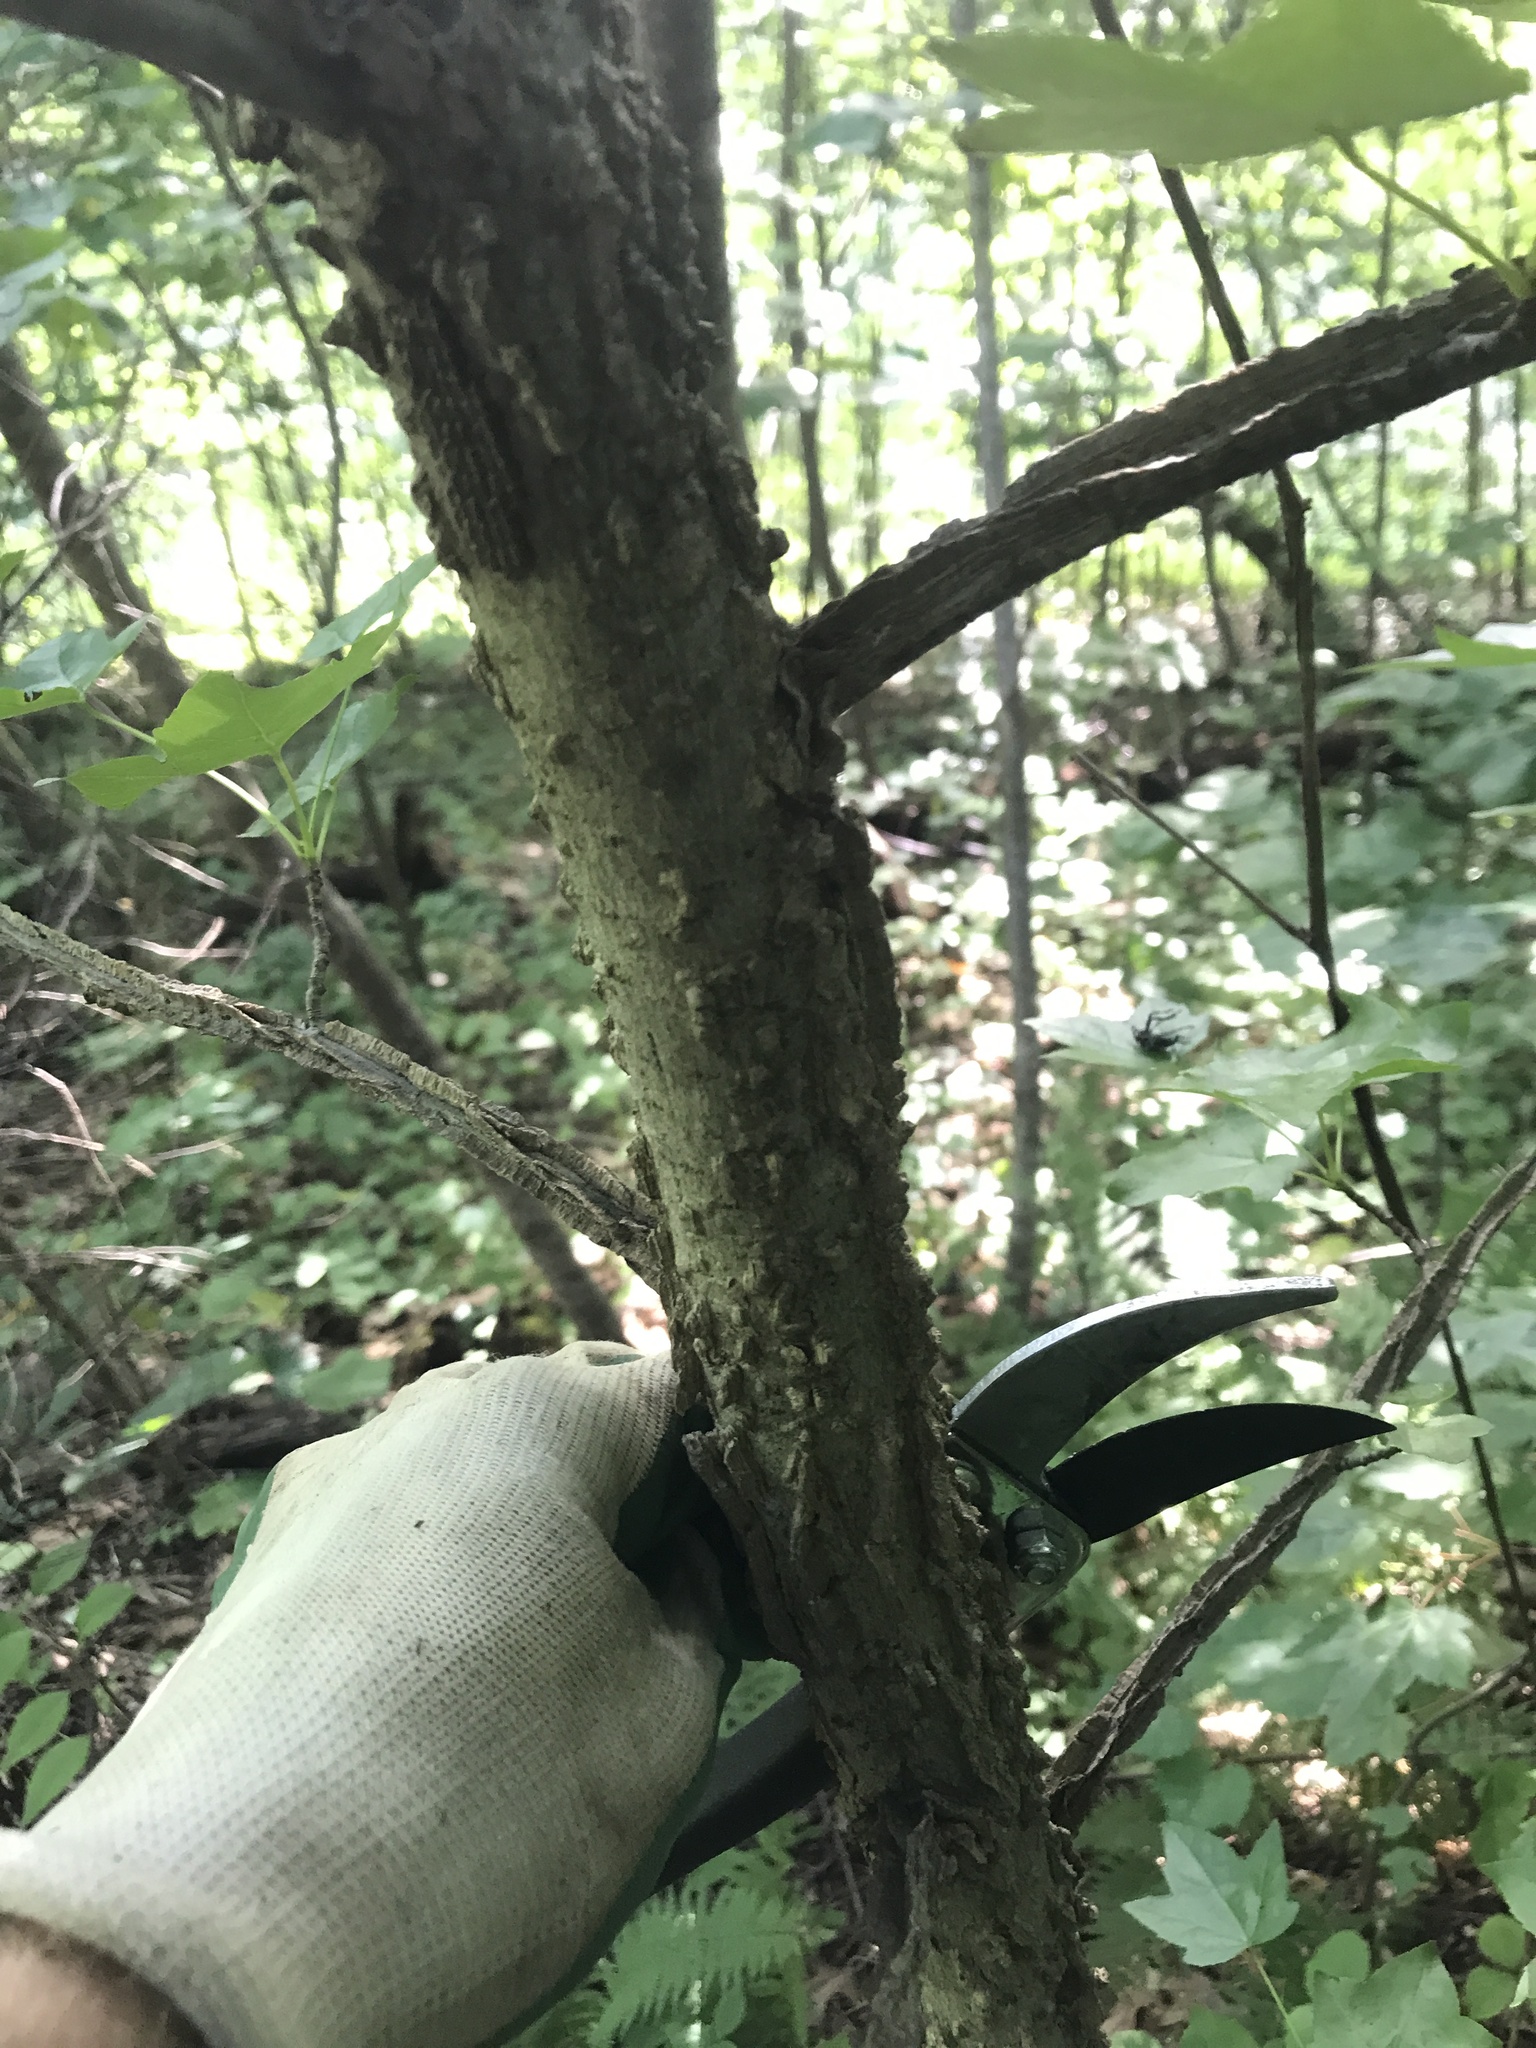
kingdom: Plantae
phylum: Tracheophyta
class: Magnoliopsida
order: Saxifragales
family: Altingiaceae
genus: Liquidambar
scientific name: Liquidambar styraciflua
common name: Sweet gum
